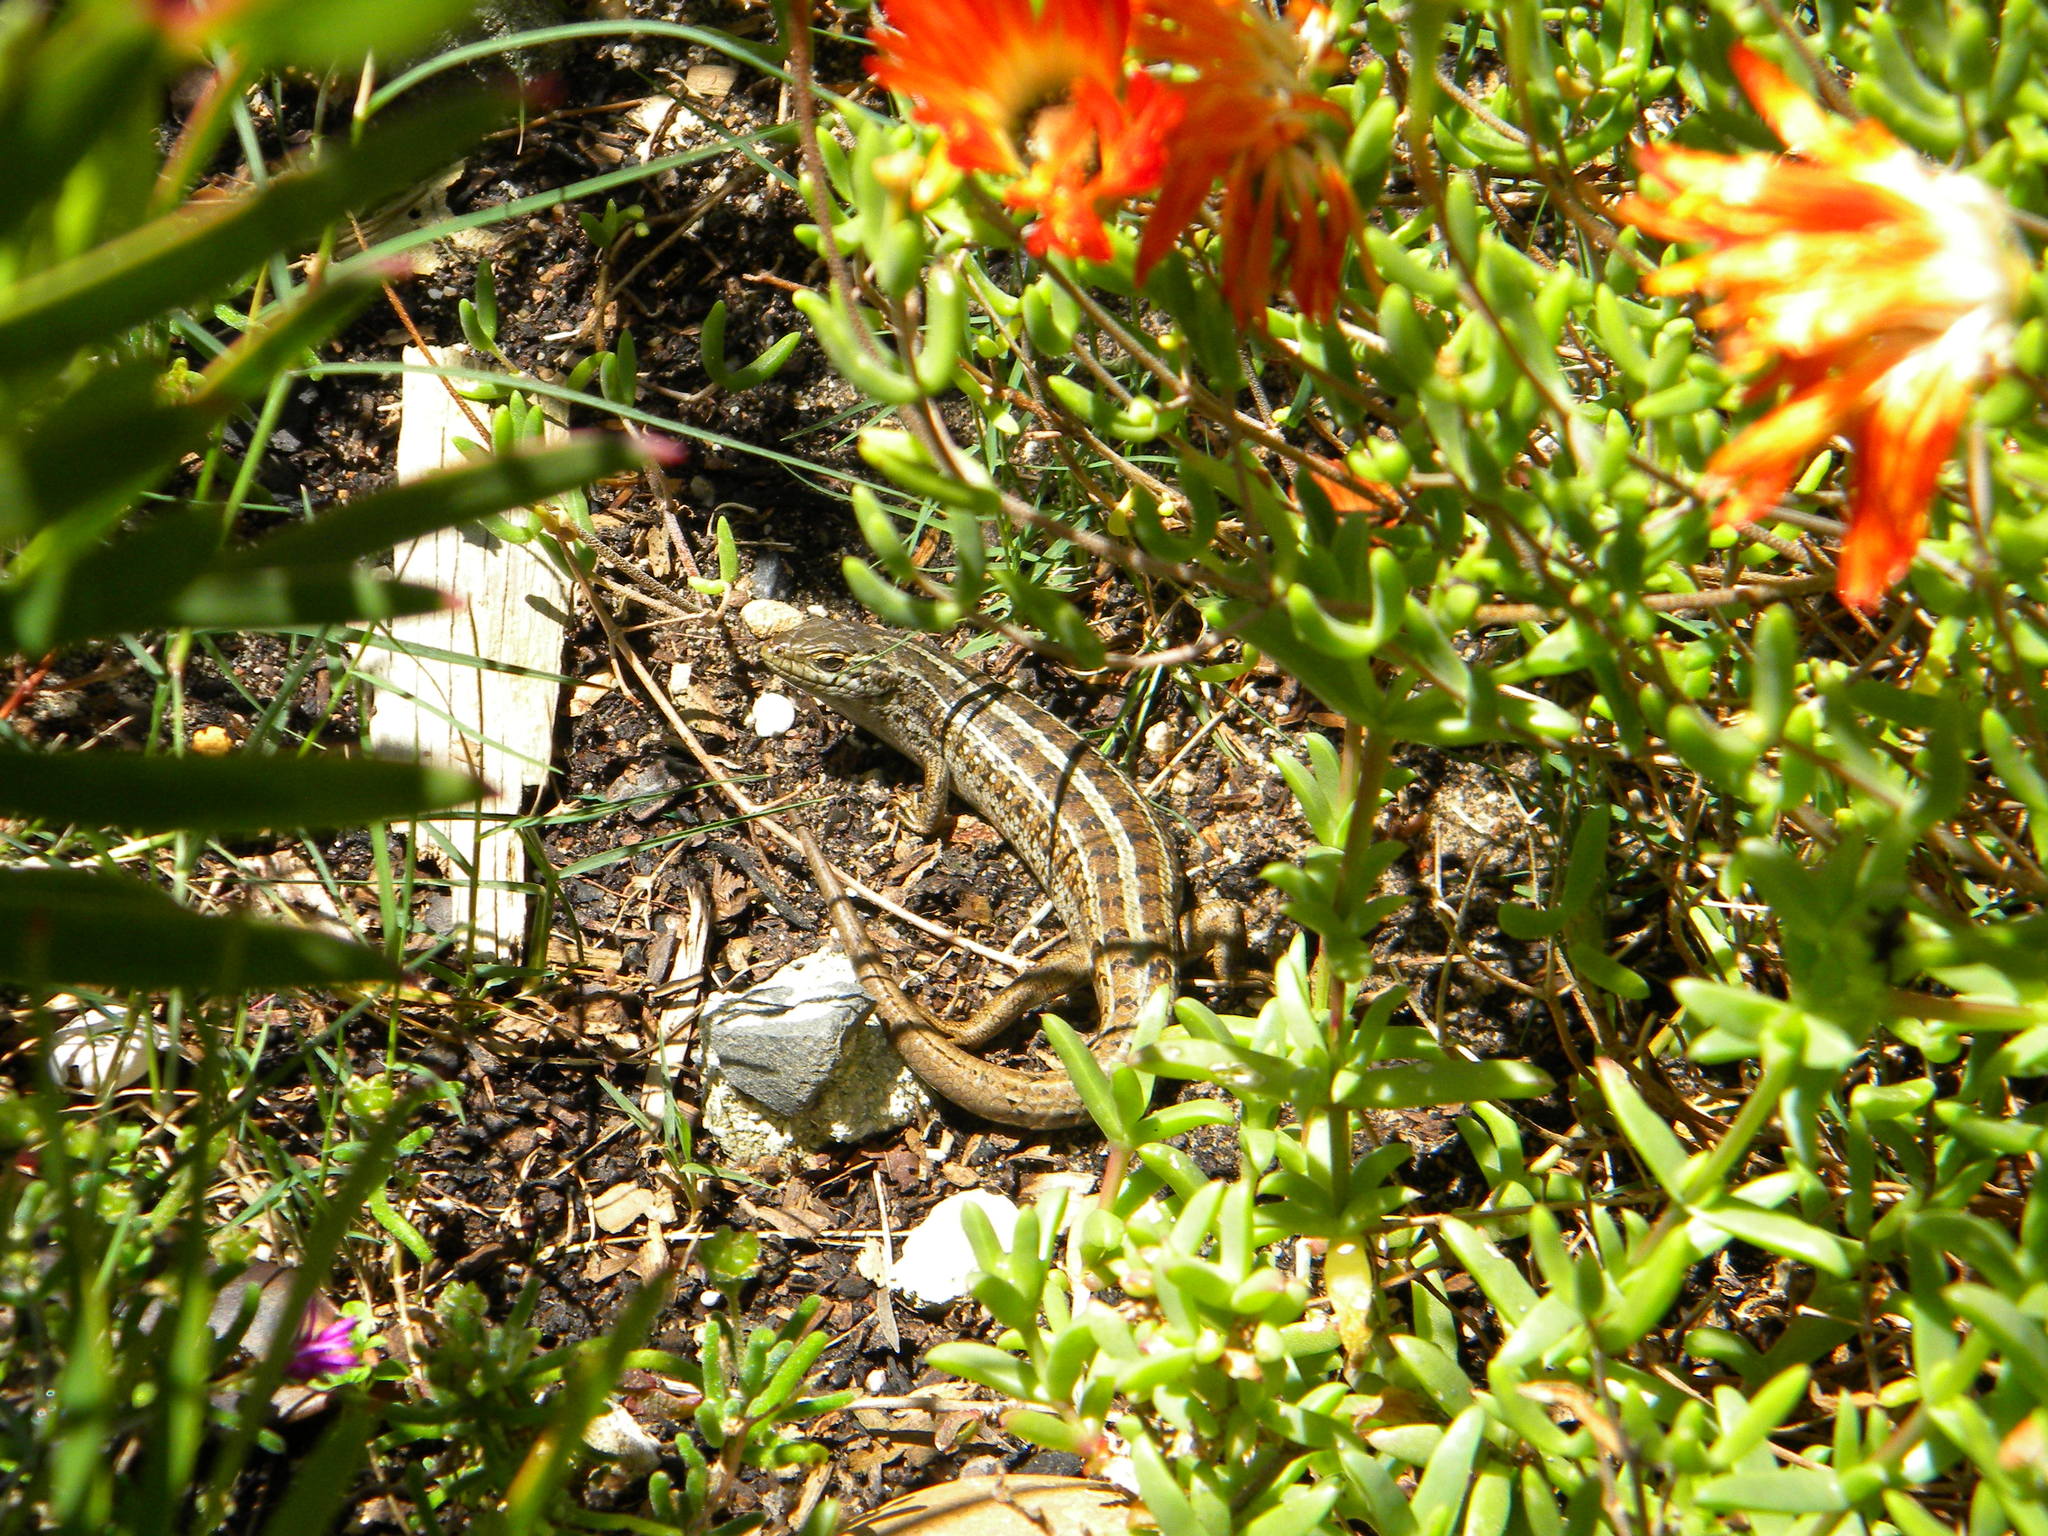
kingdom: Animalia
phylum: Chordata
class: Squamata
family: Scincidae
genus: Trachylepis
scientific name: Trachylepis capensis
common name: Cape skink
